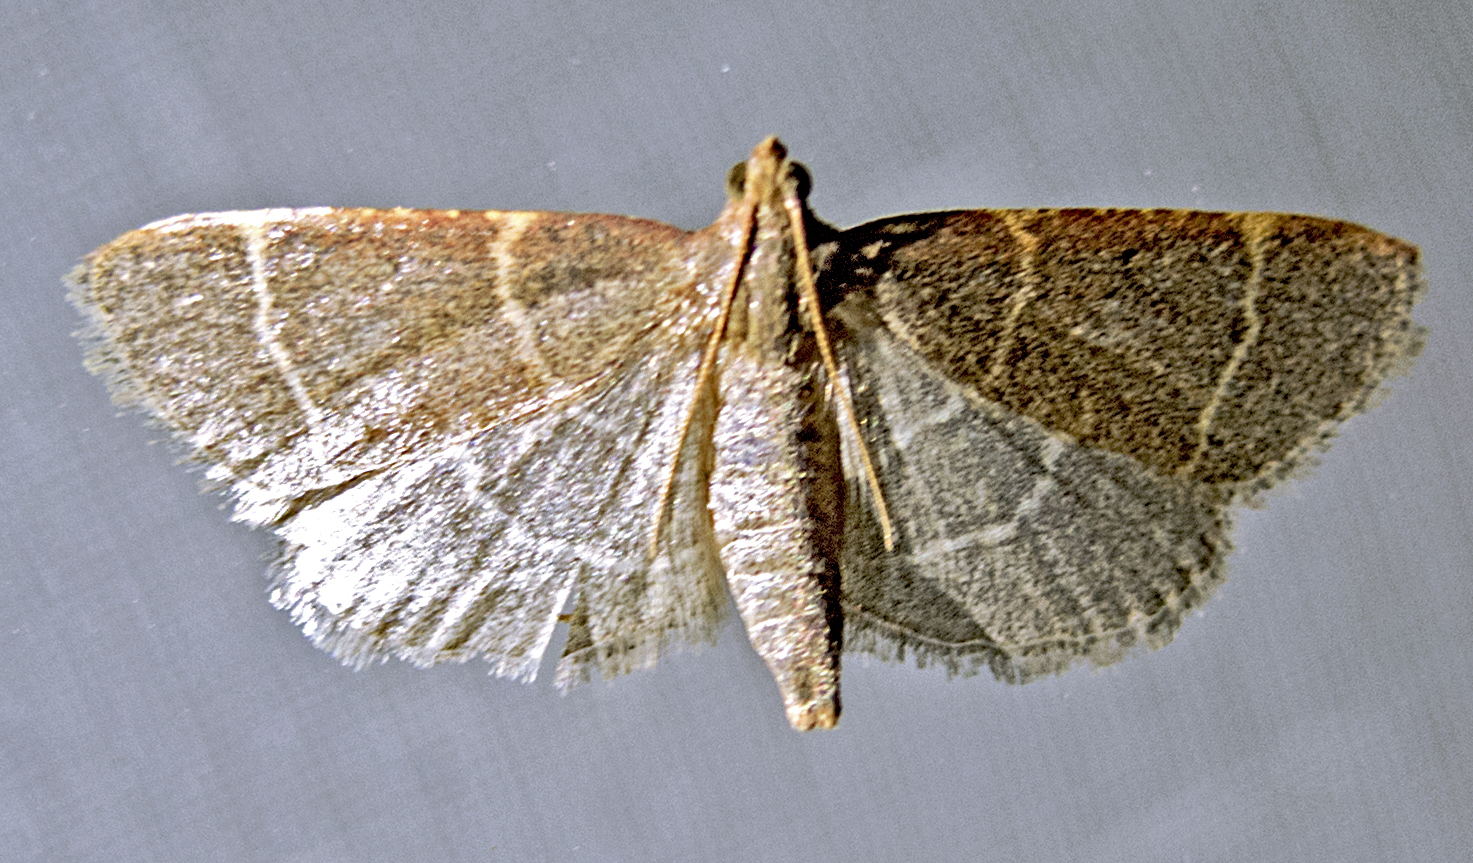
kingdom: Animalia
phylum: Arthropoda
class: Insecta
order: Lepidoptera
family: Pyralidae
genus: Hypsopygia
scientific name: Hypsopygia glaucinalis
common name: Double-striped tabby
